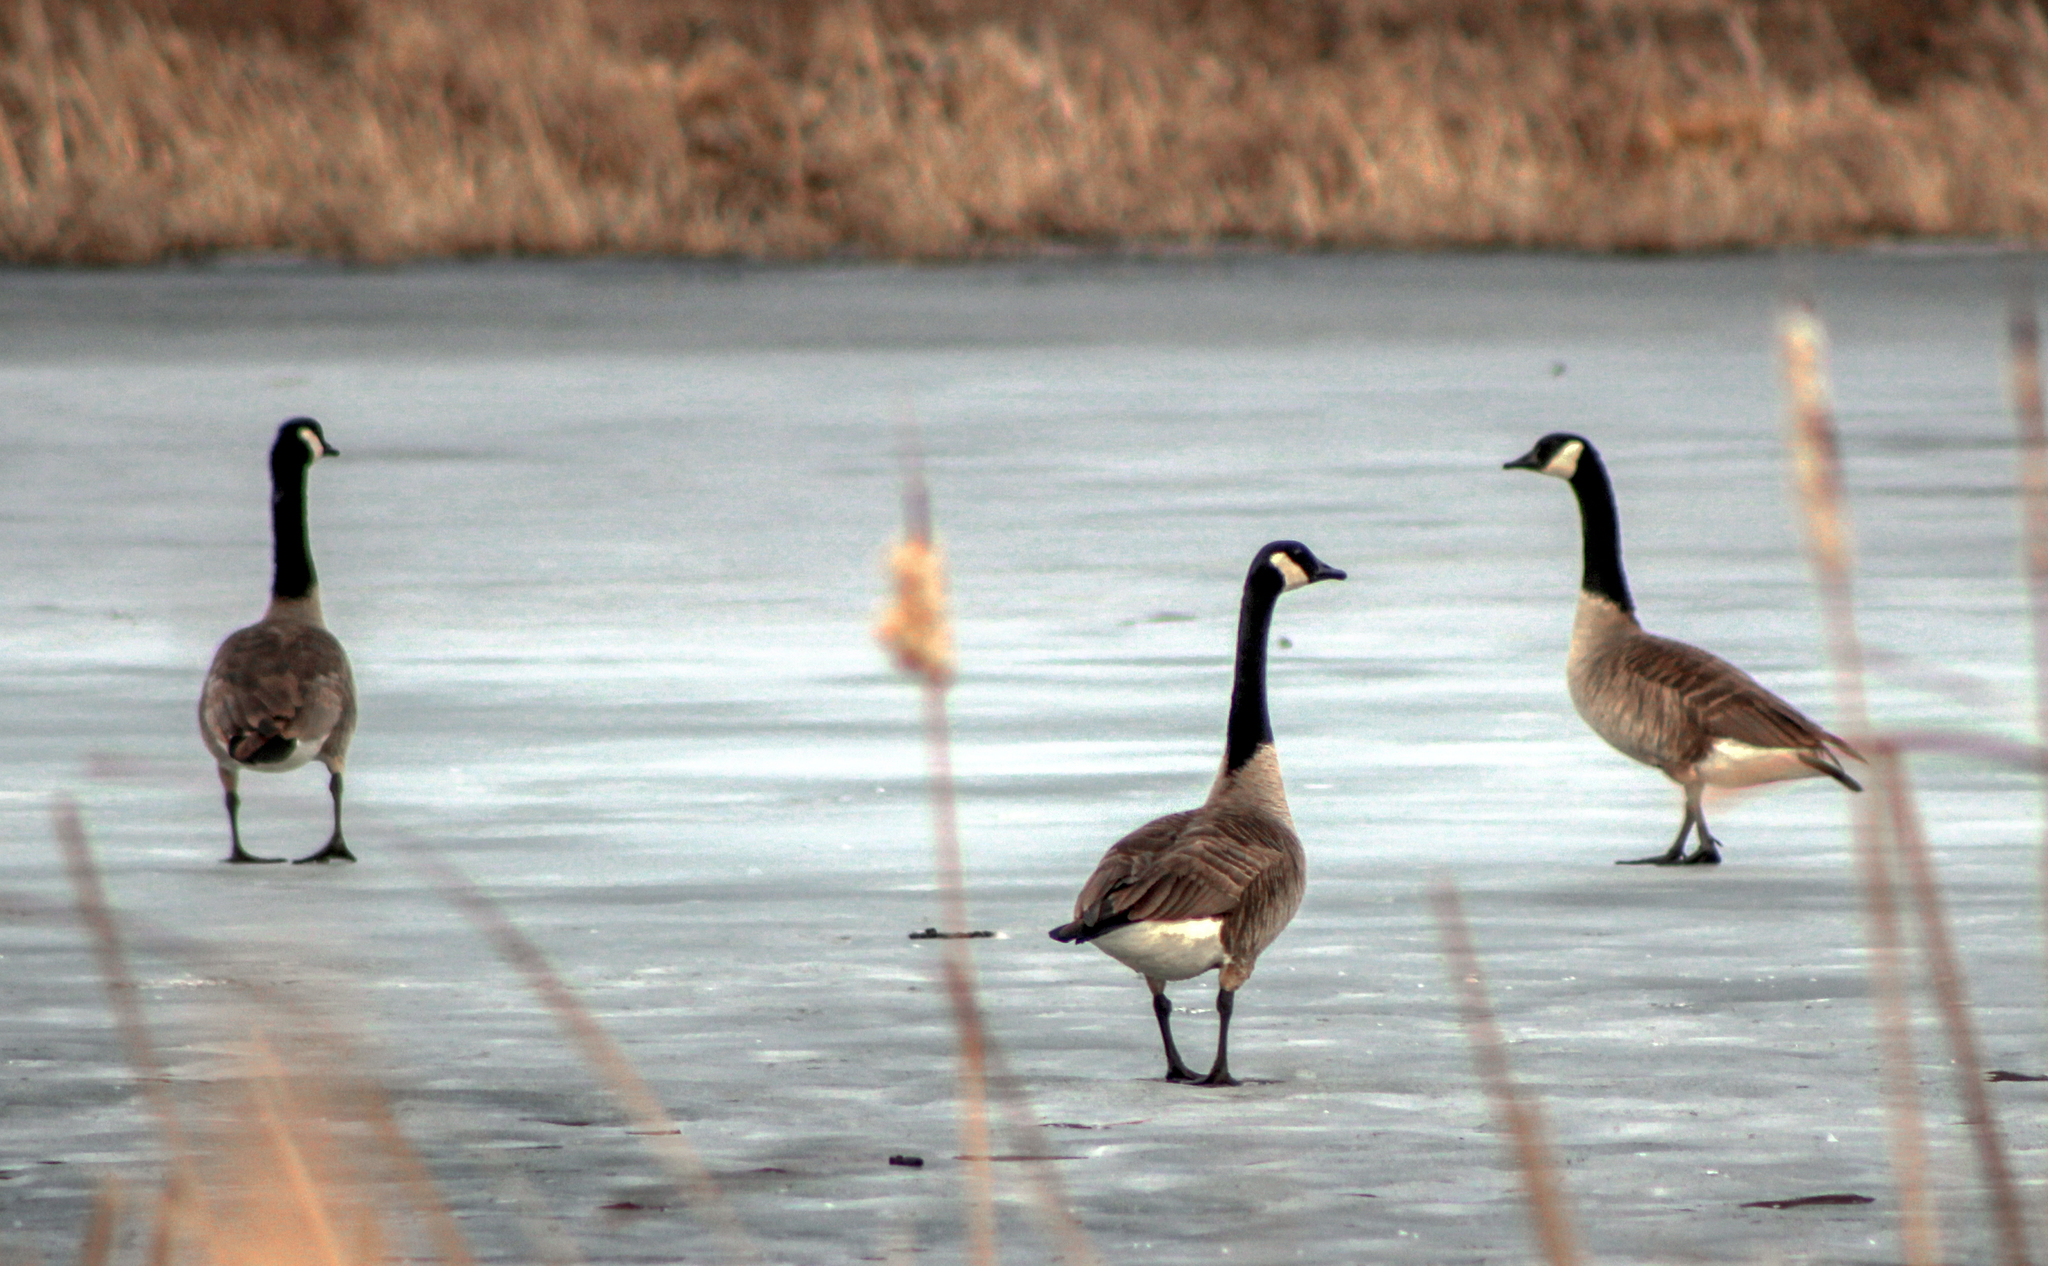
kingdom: Animalia
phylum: Chordata
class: Aves
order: Anseriformes
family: Anatidae
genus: Branta
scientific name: Branta canadensis
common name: Canada goose
